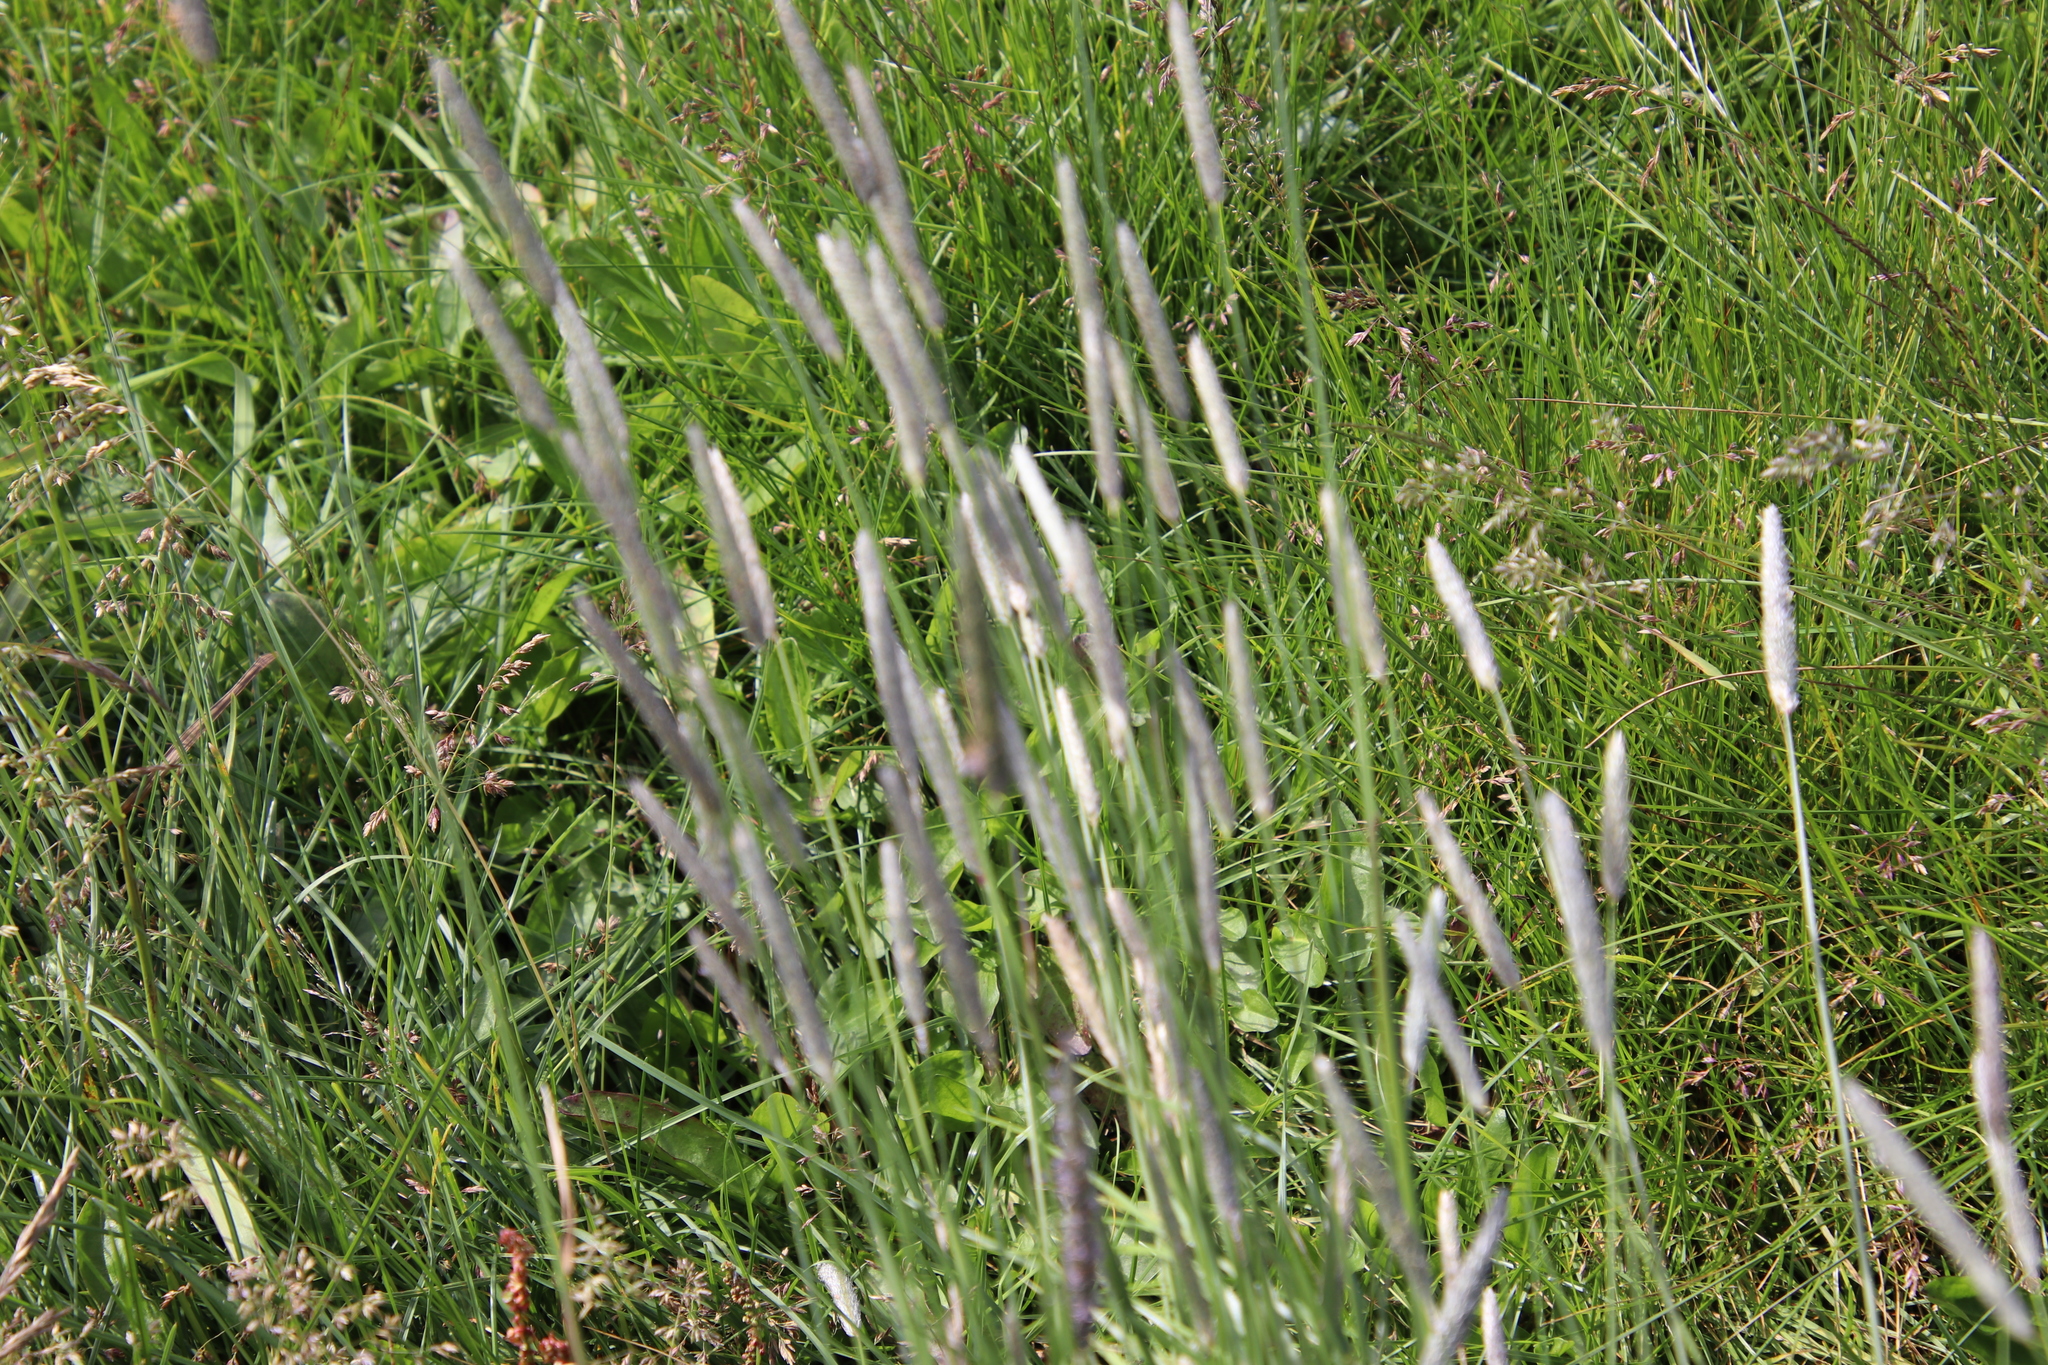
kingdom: Plantae
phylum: Tracheophyta
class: Liliopsida
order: Poales
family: Poaceae
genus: Alopecurus
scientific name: Alopecurus pratensis
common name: Meadow foxtail
